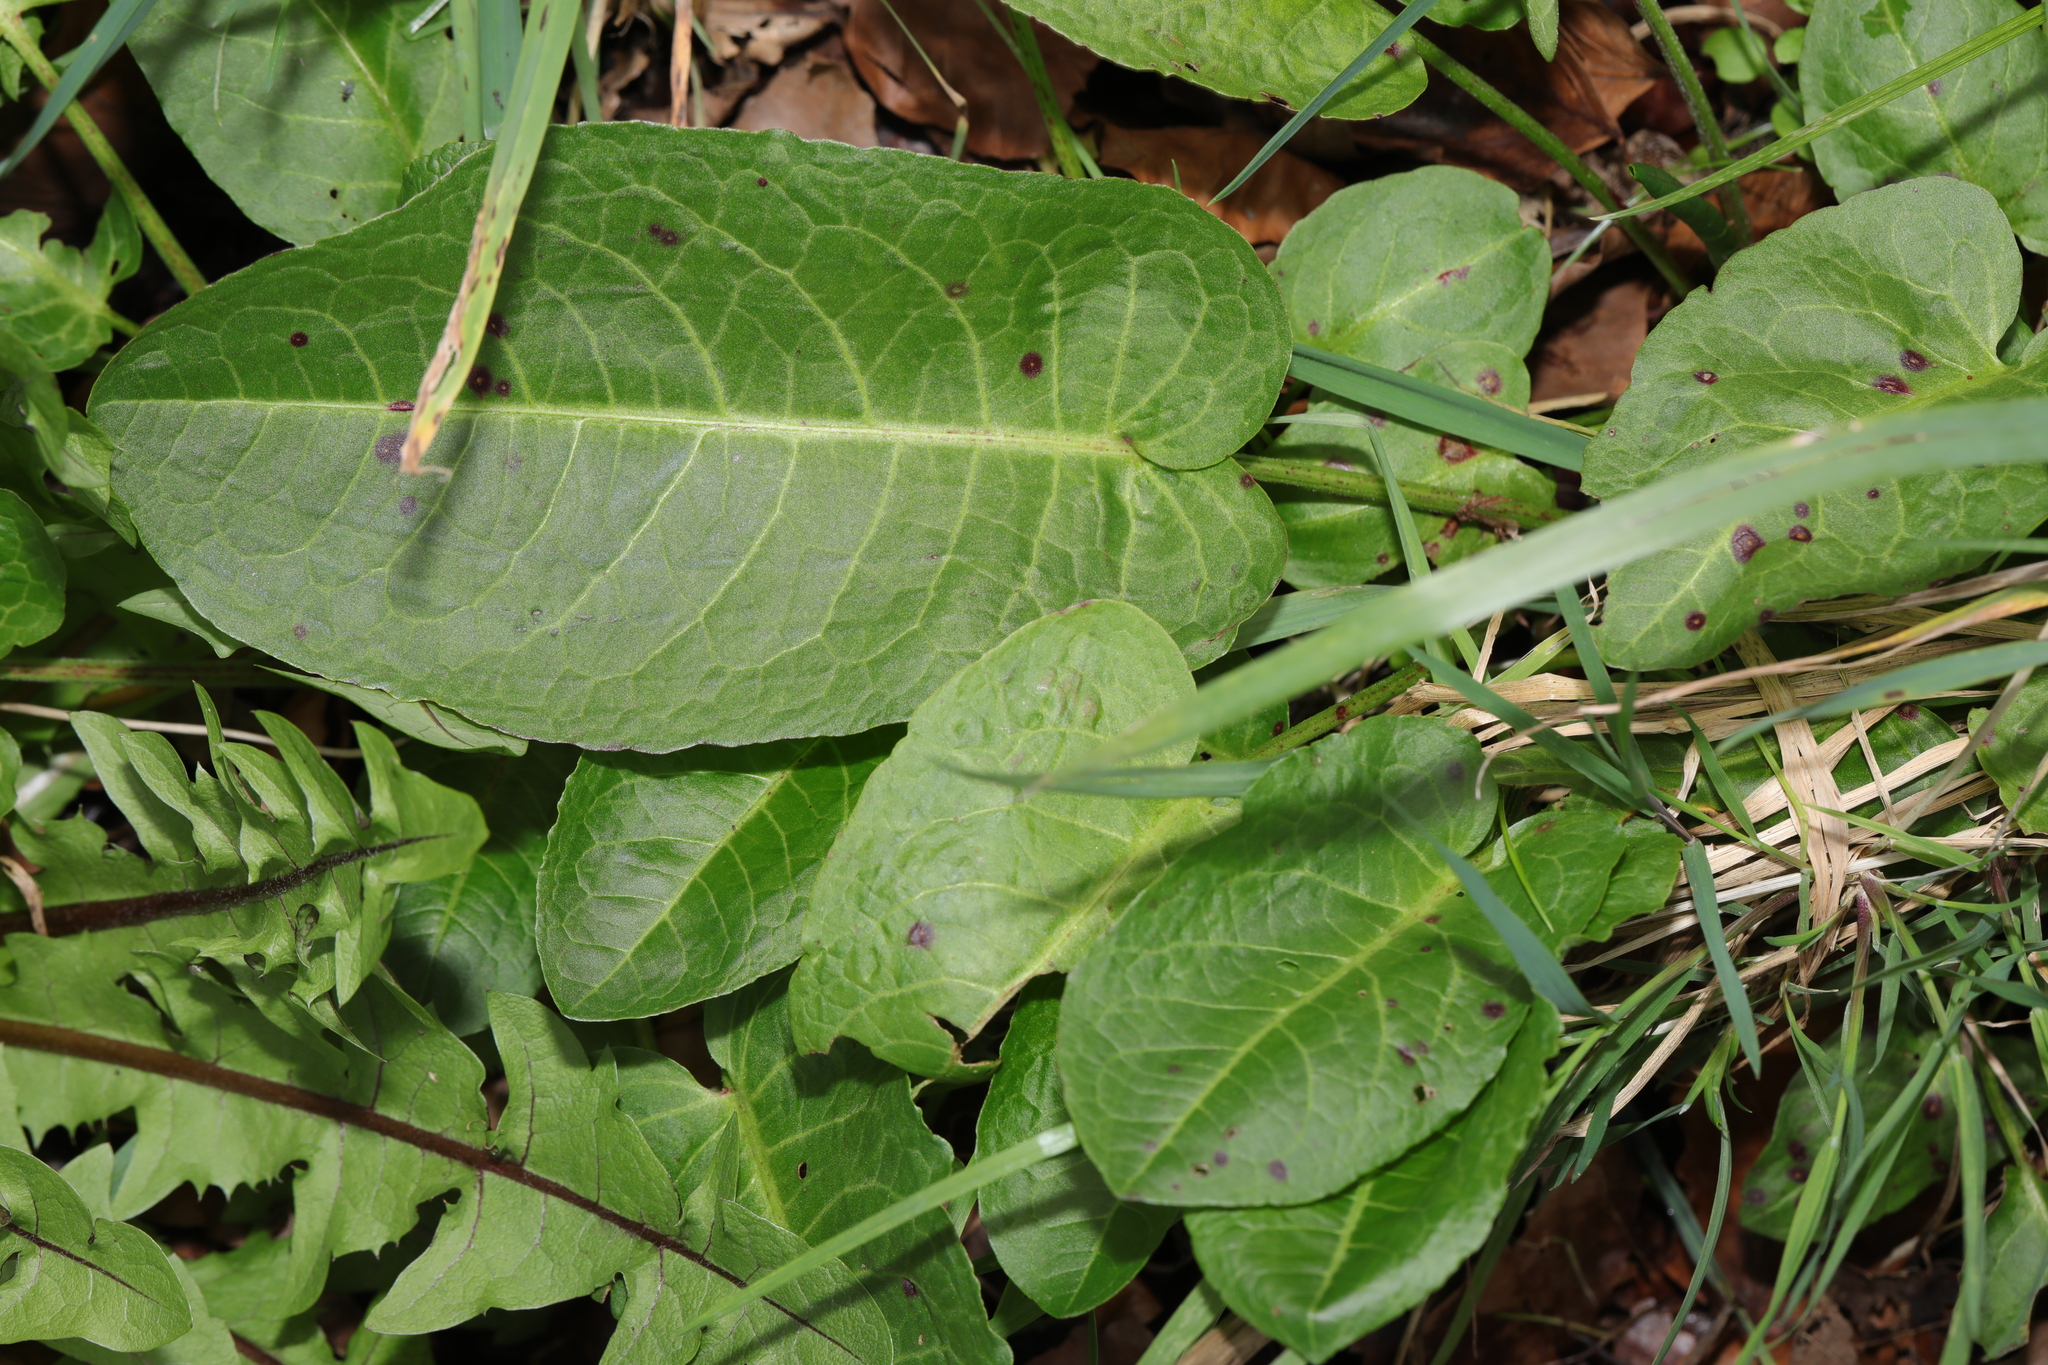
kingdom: Plantae
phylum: Tracheophyta
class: Magnoliopsida
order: Caryophyllales
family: Polygonaceae
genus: Rumex
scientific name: Rumex obtusifolius
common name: Bitter dock
